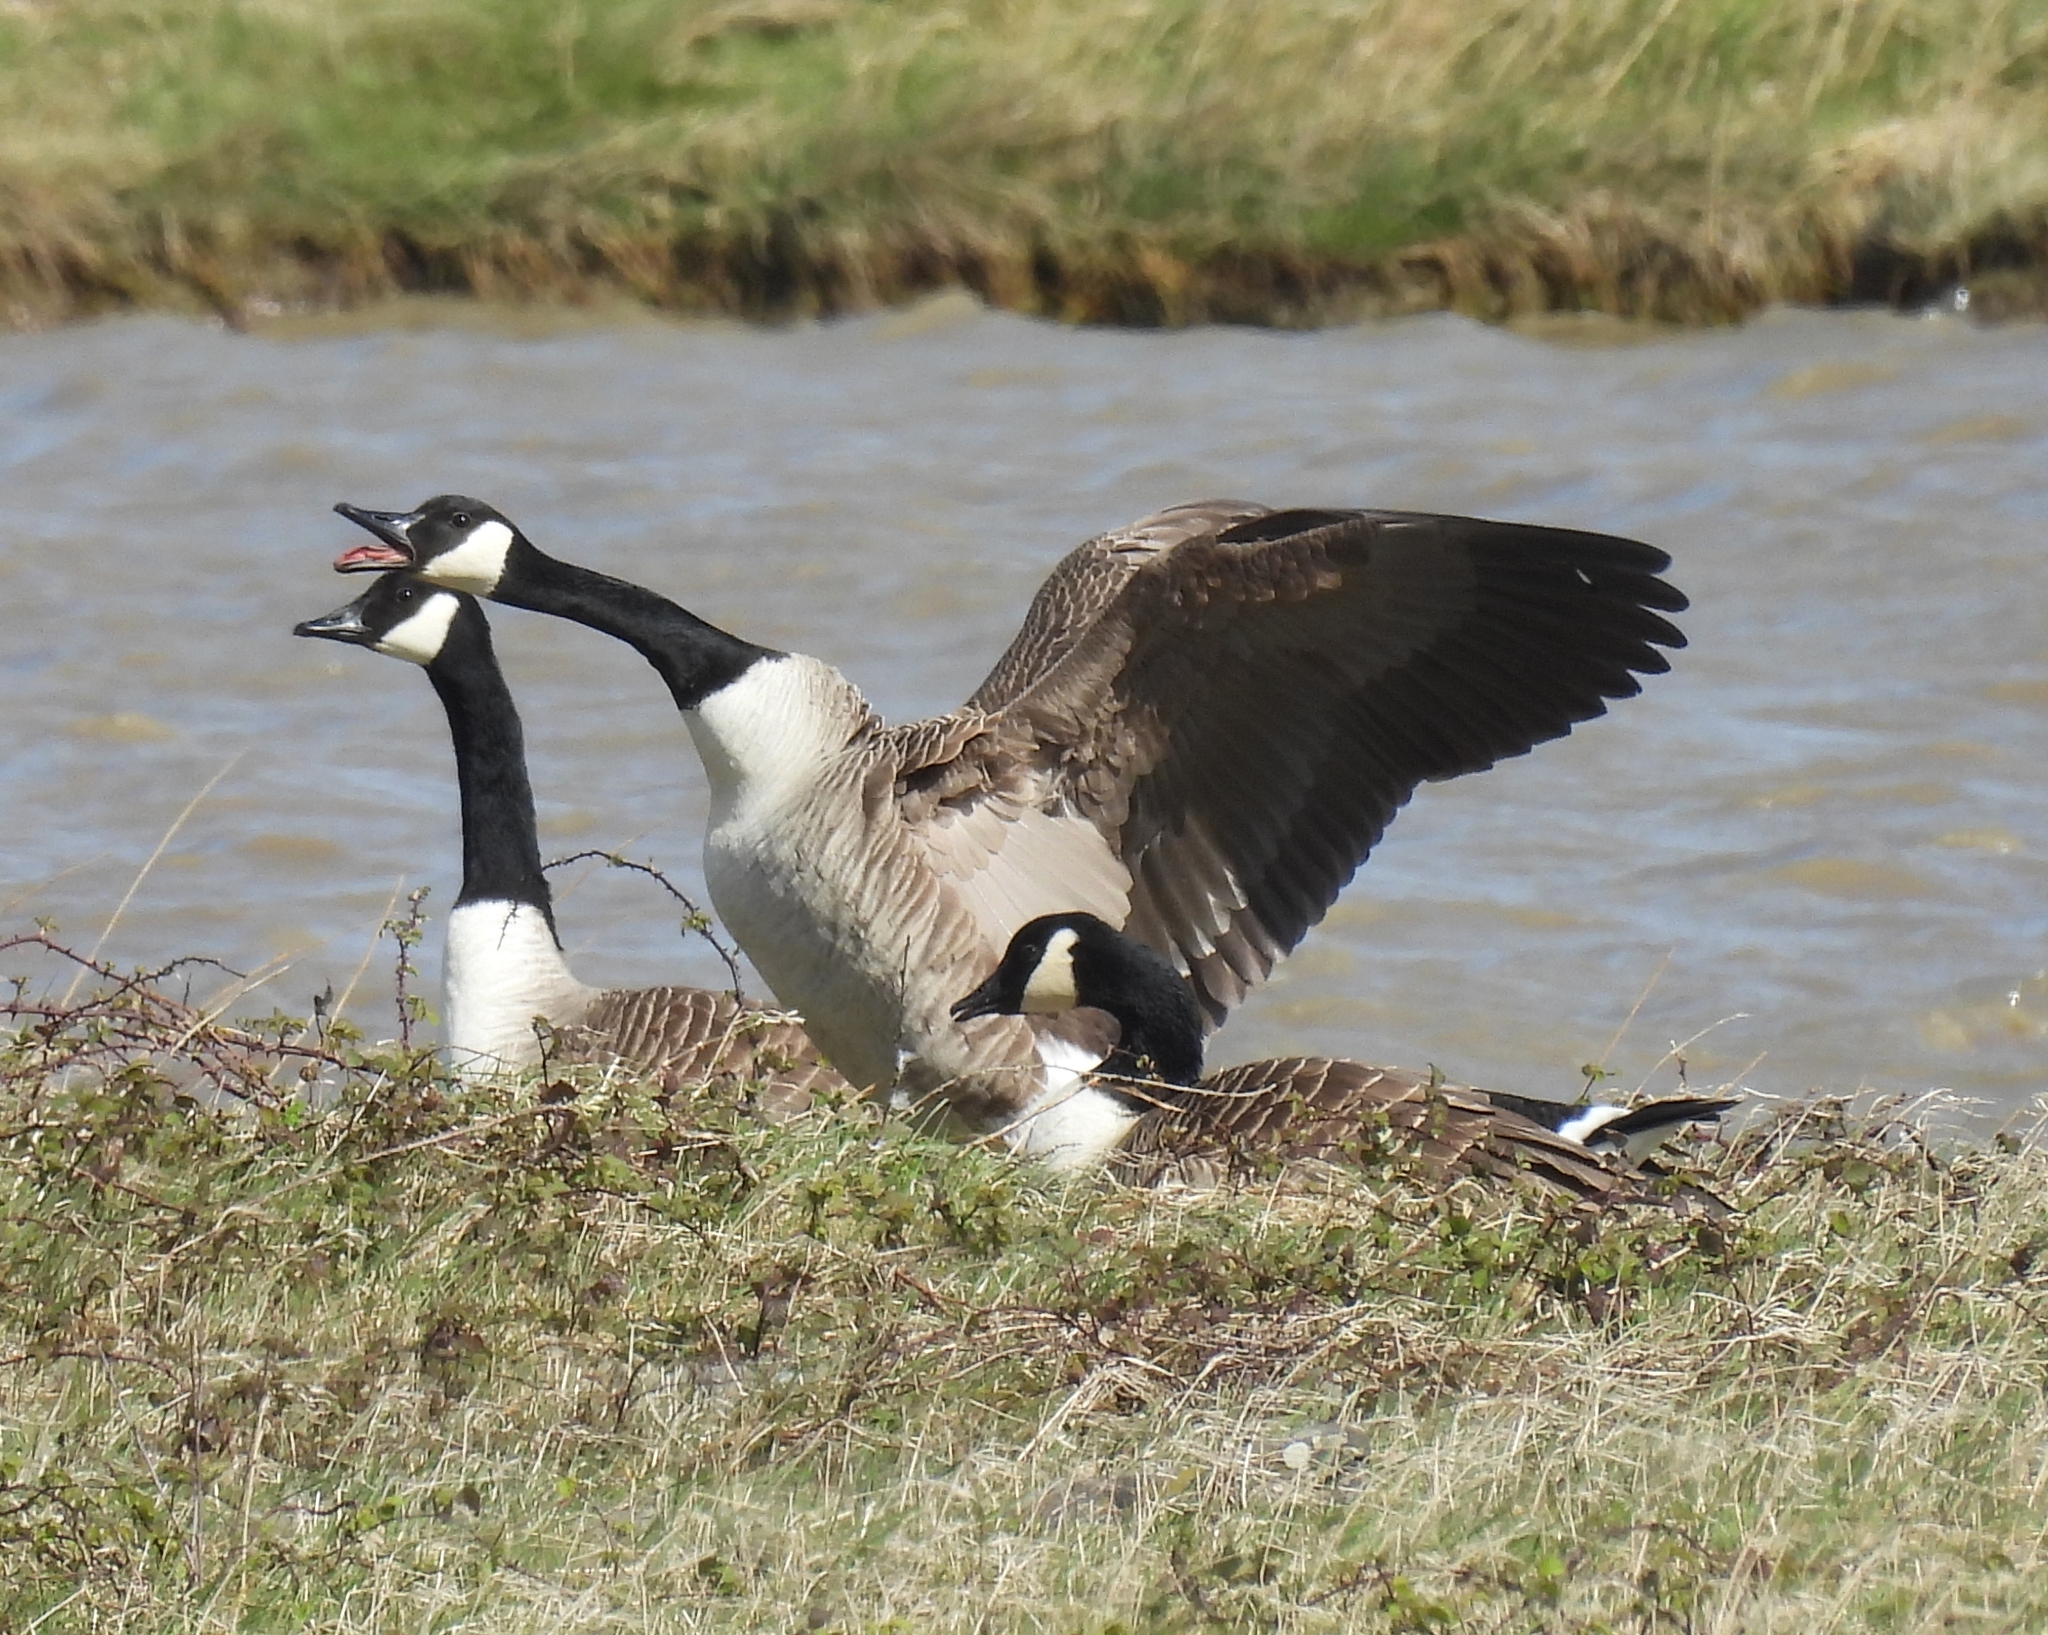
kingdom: Animalia
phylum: Chordata
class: Aves
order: Anseriformes
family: Anatidae
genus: Branta
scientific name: Branta canadensis
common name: Canada goose
